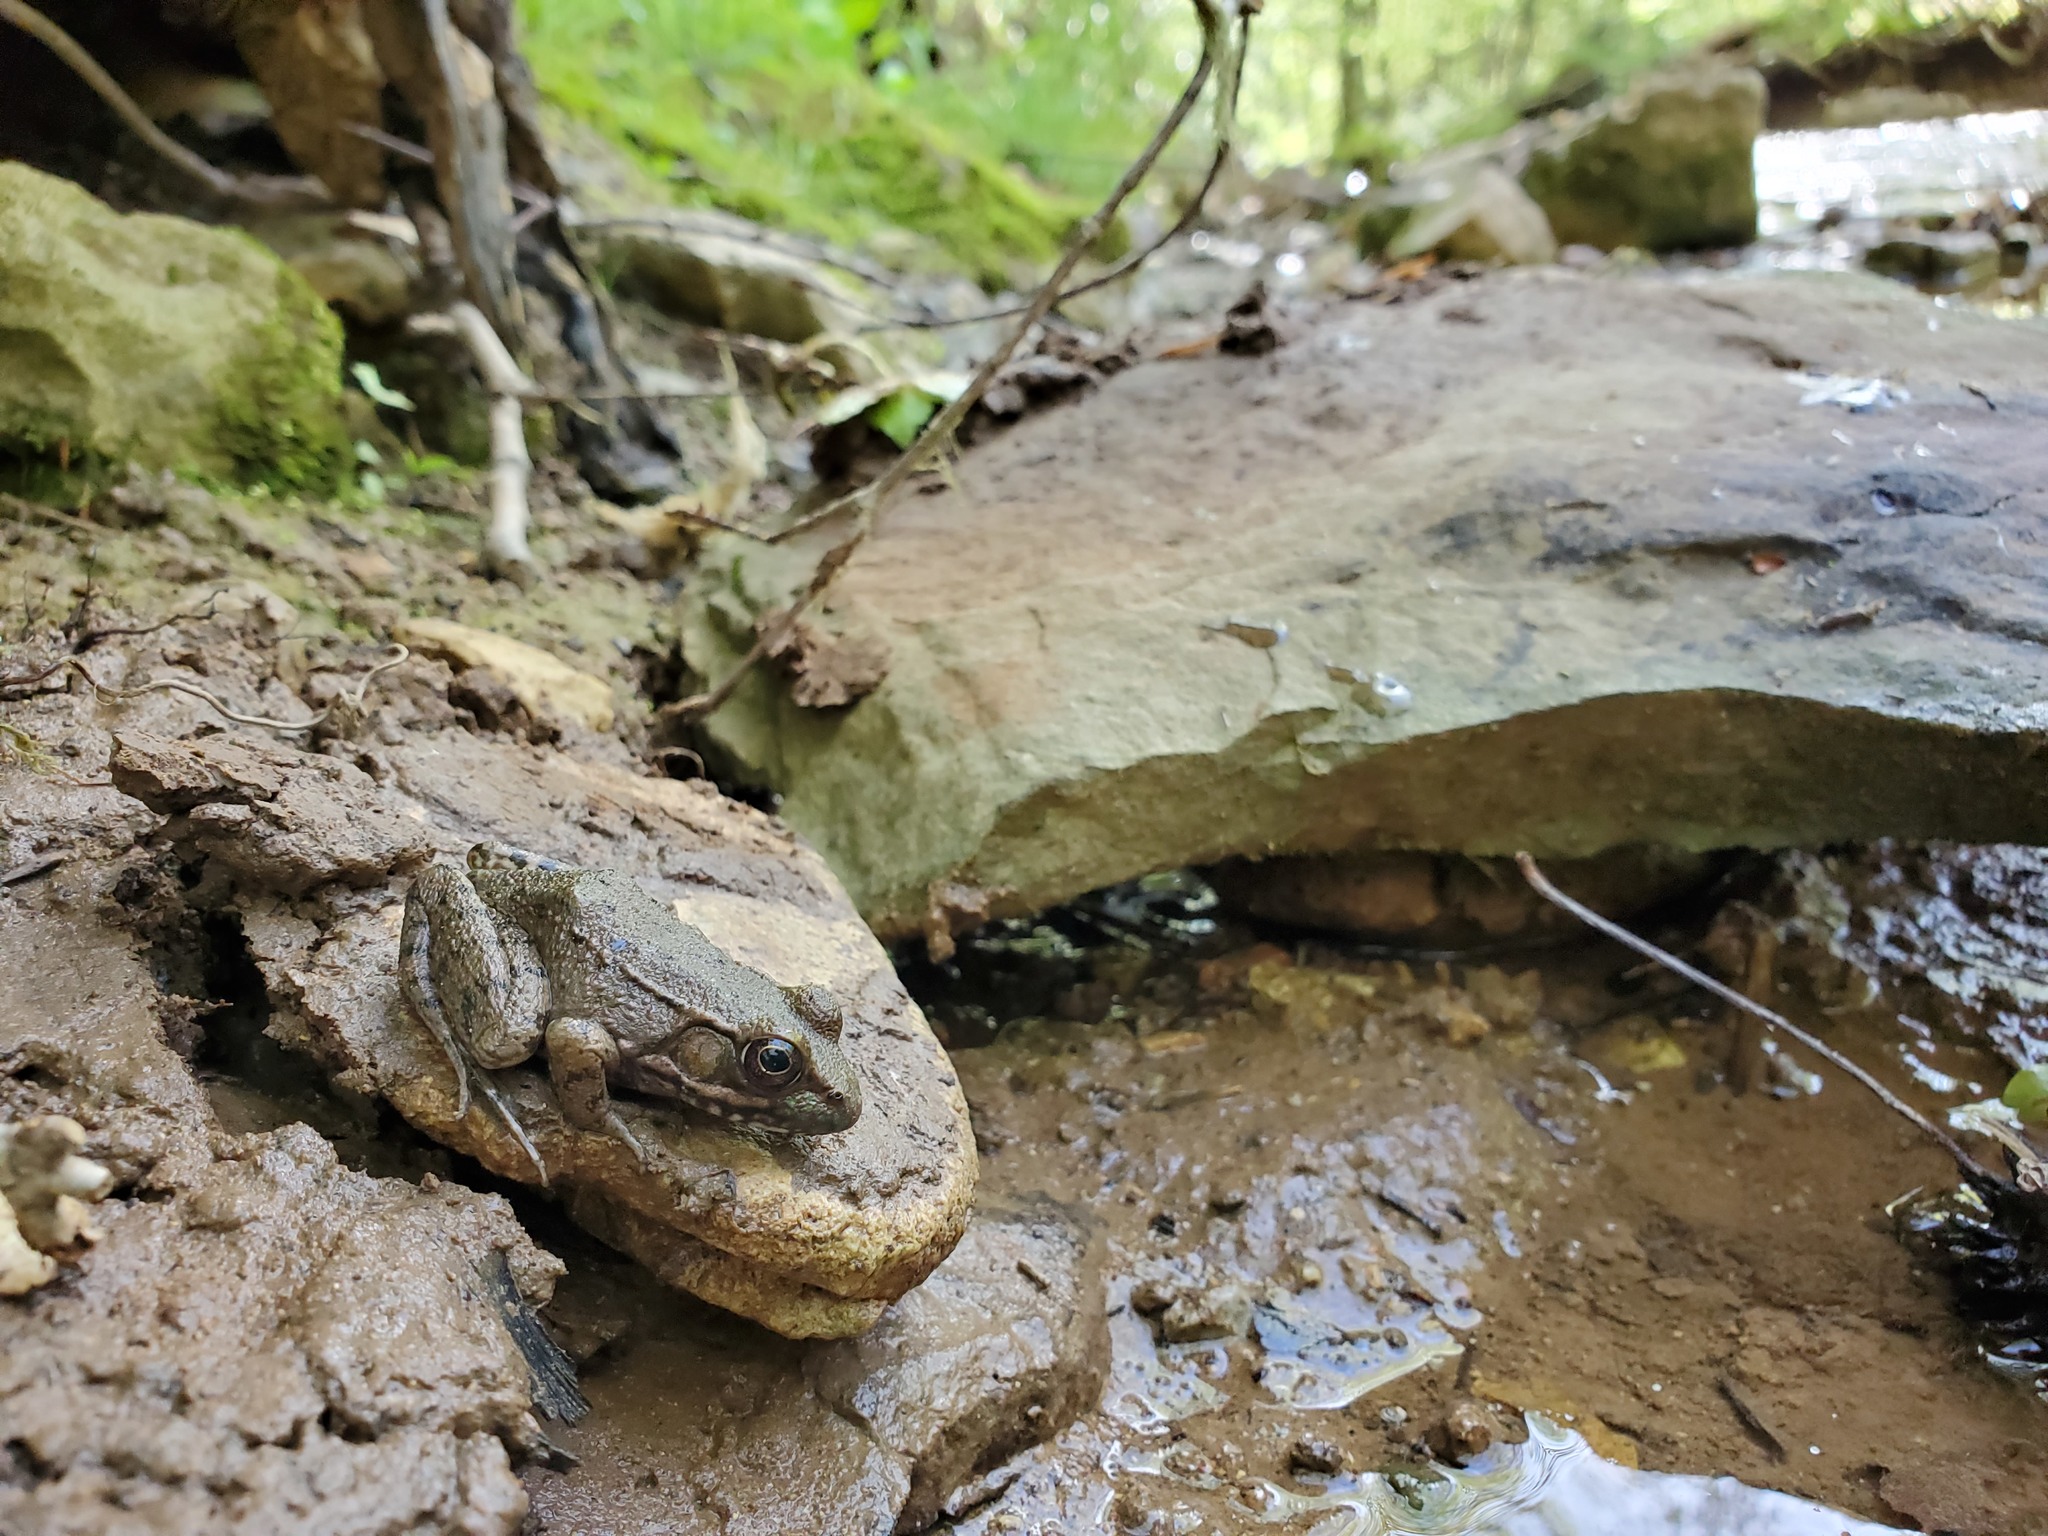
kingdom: Animalia
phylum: Chordata
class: Amphibia
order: Anura
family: Ranidae
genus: Lithobates
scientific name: Lithobates clamitans
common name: Green frog
